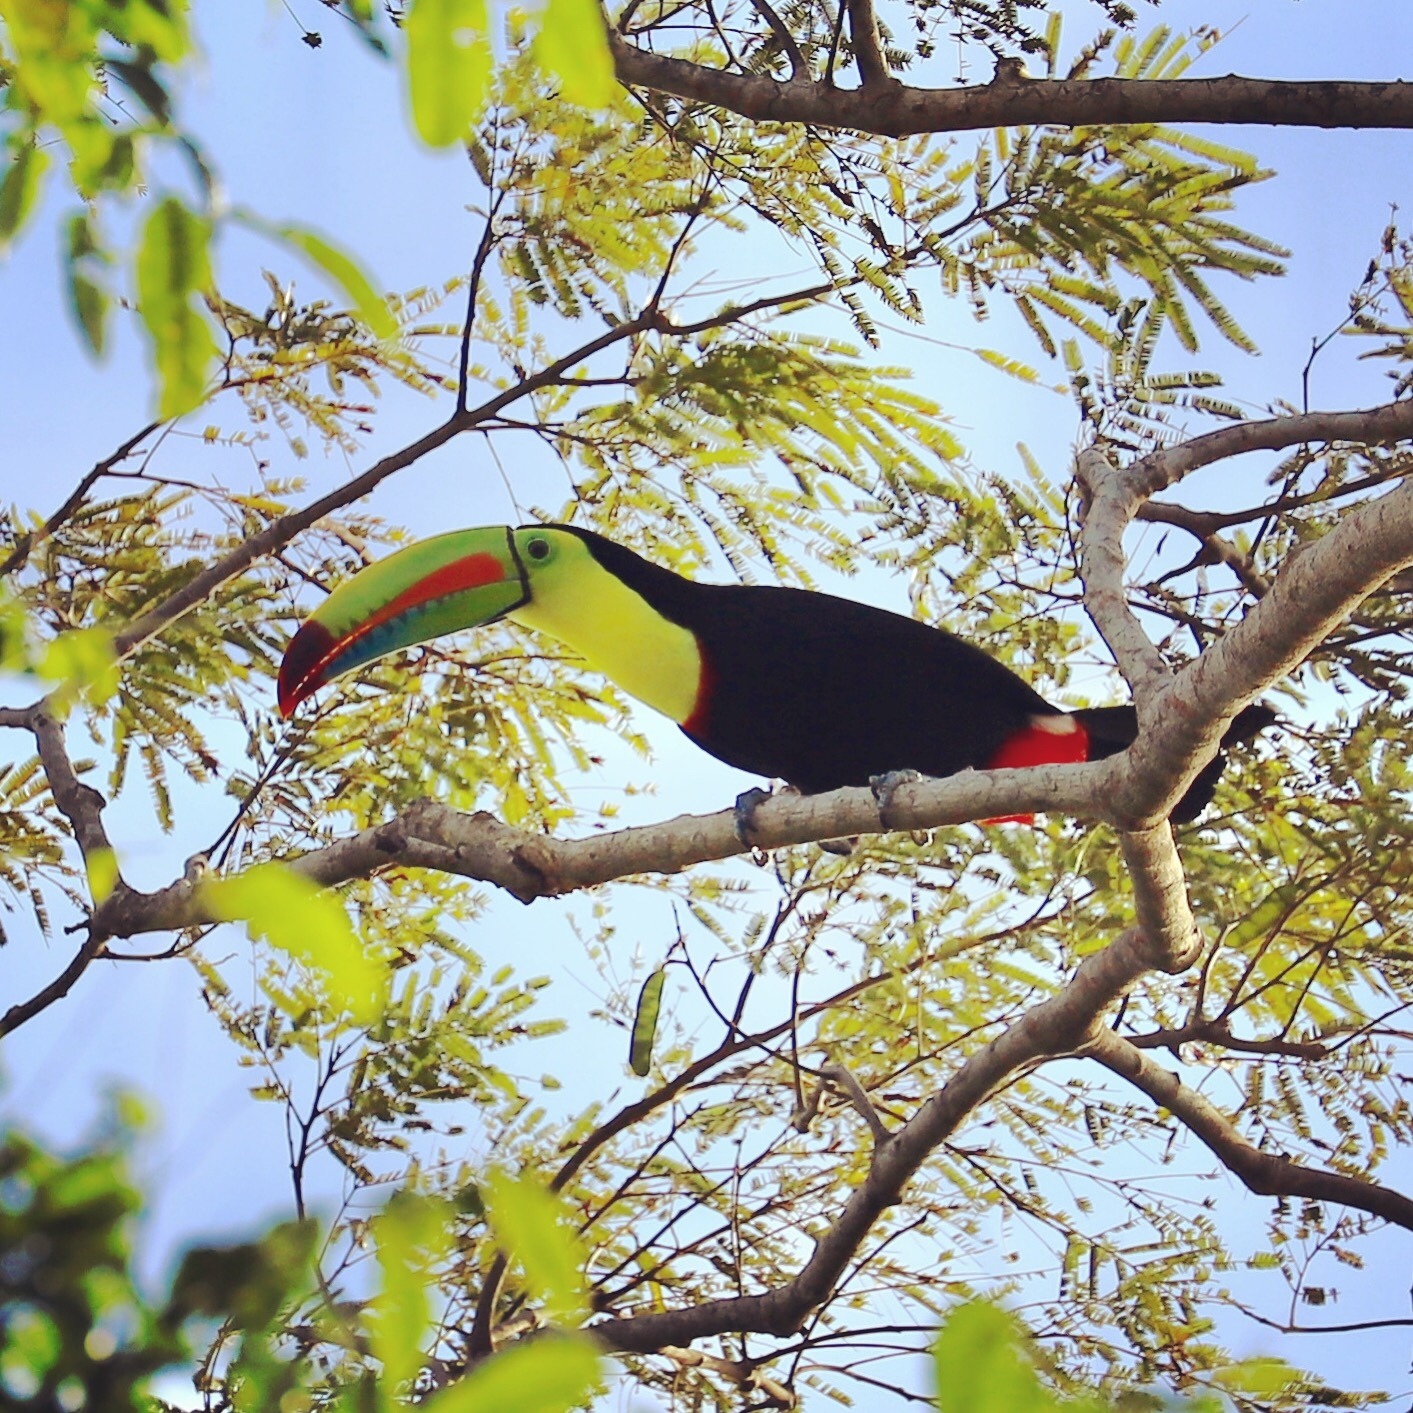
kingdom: Animalia
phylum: Chordata
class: Aves
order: Piciformes
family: Ramphastidae
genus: Ramphastos
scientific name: Ramphastos sulfuratus
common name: Keel-billed toucan
